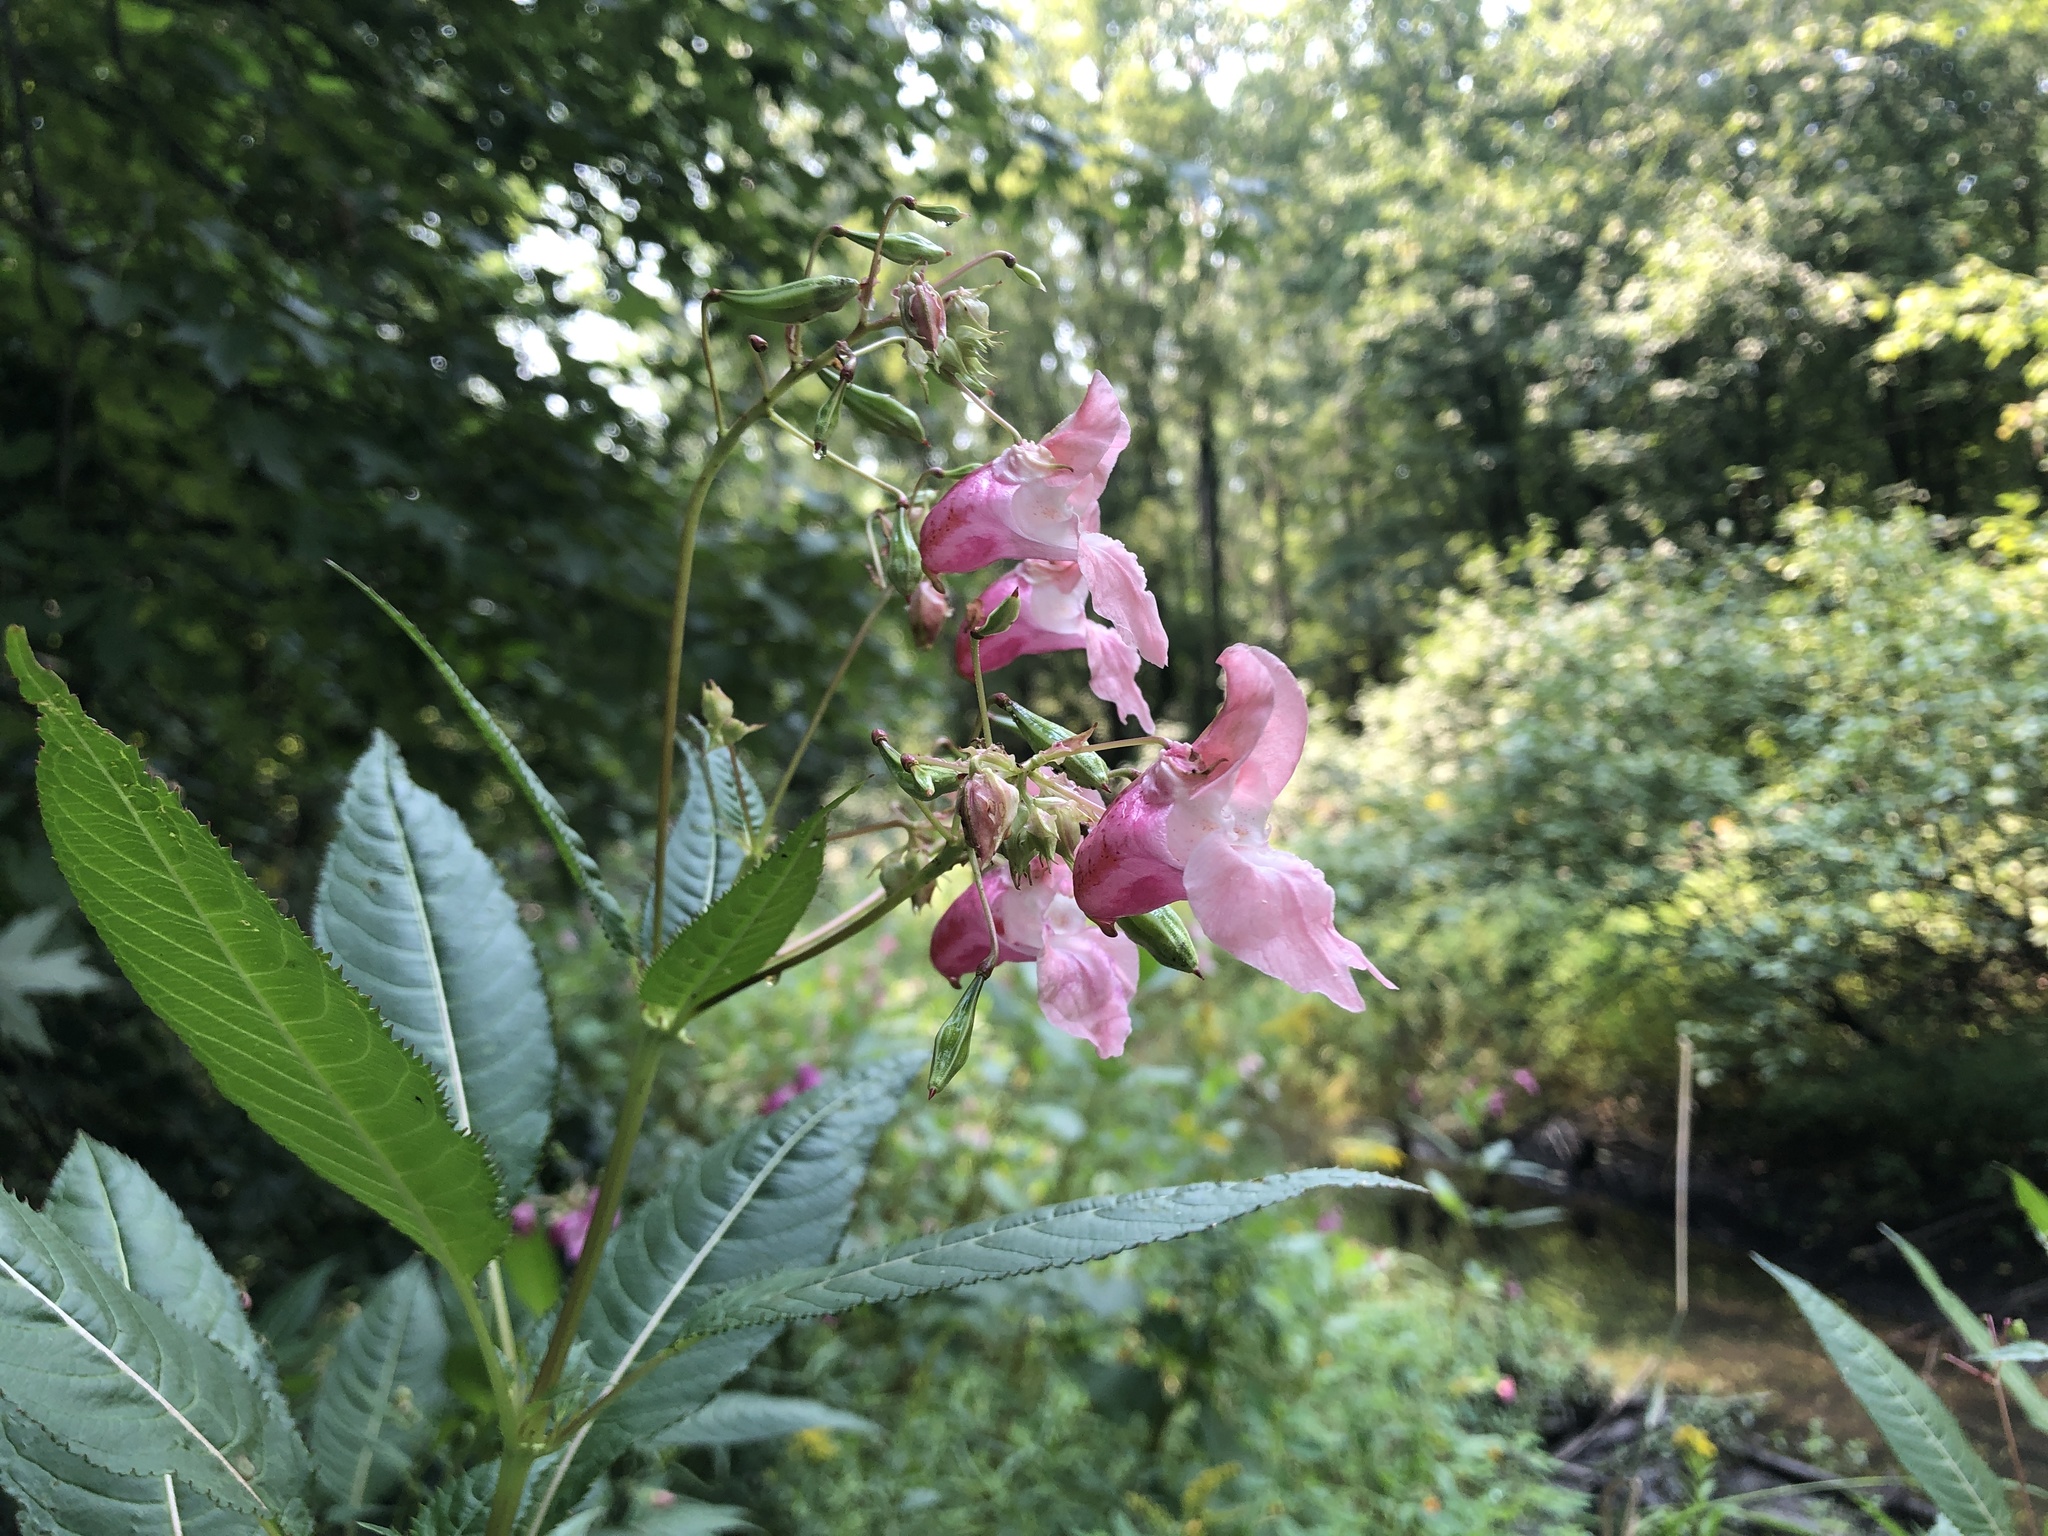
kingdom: Plantae
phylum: Tracheophyta
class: Magnoliopsida
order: Ericales
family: Balsaminaceae
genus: Impatiens
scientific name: Impatiens glandulifera
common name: Himalayan balsam
